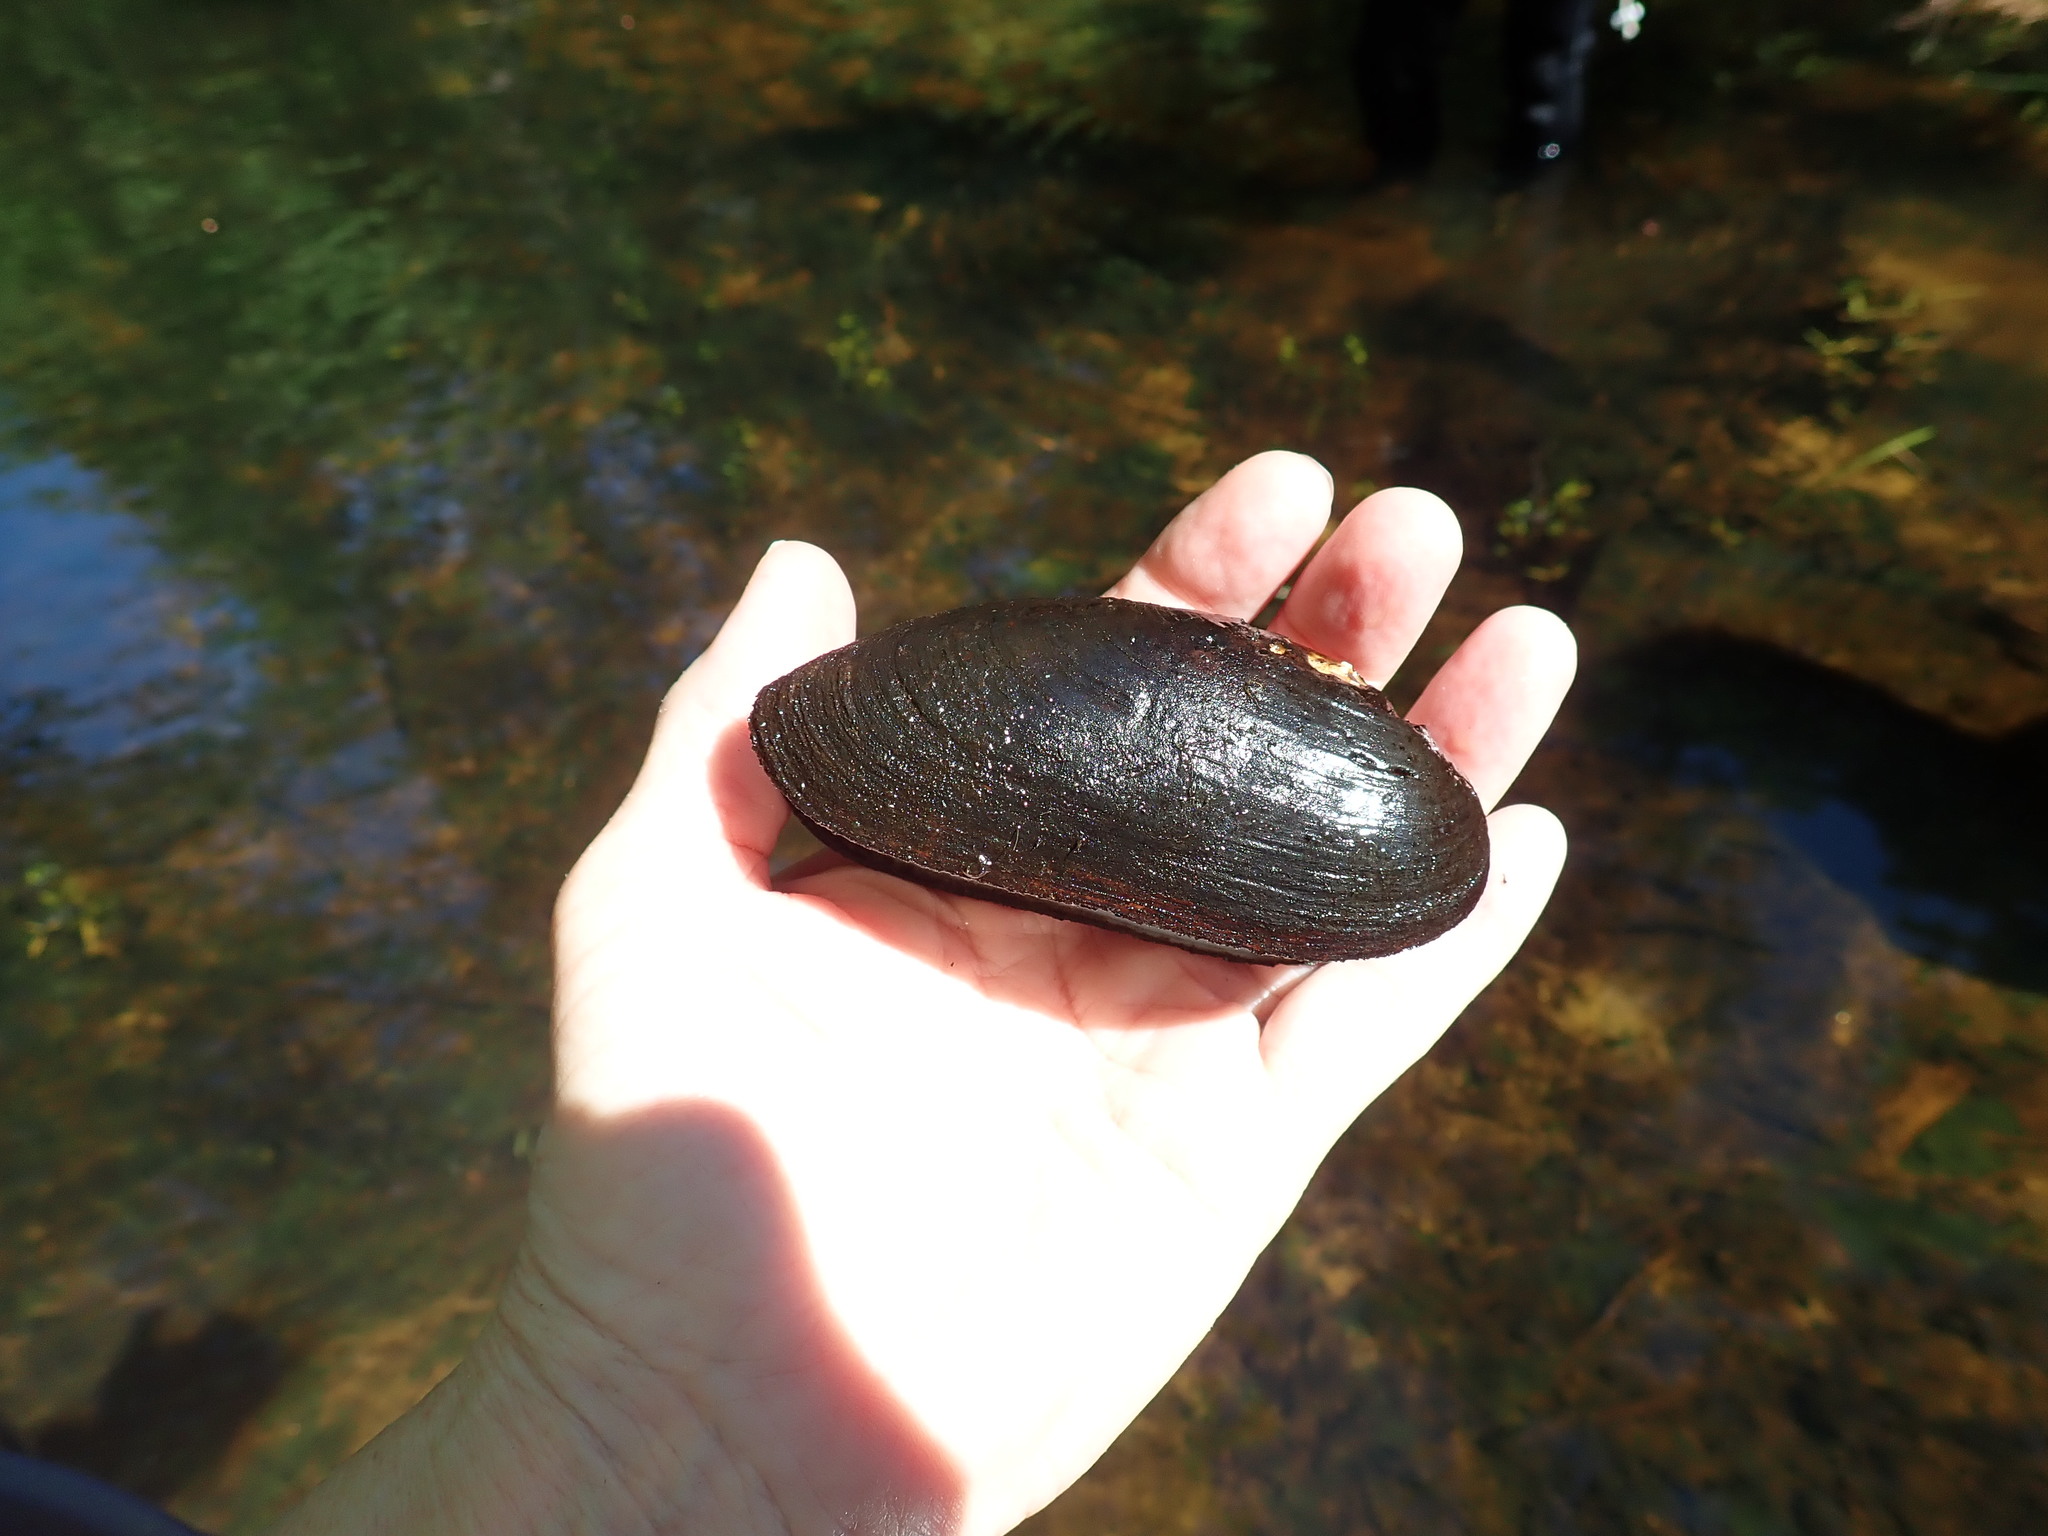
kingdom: Animalia
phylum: Mollusca
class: Bivalvia
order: Unionida
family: Margaritiferidae
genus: Margaritifera
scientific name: Margaritifera margaritifera
